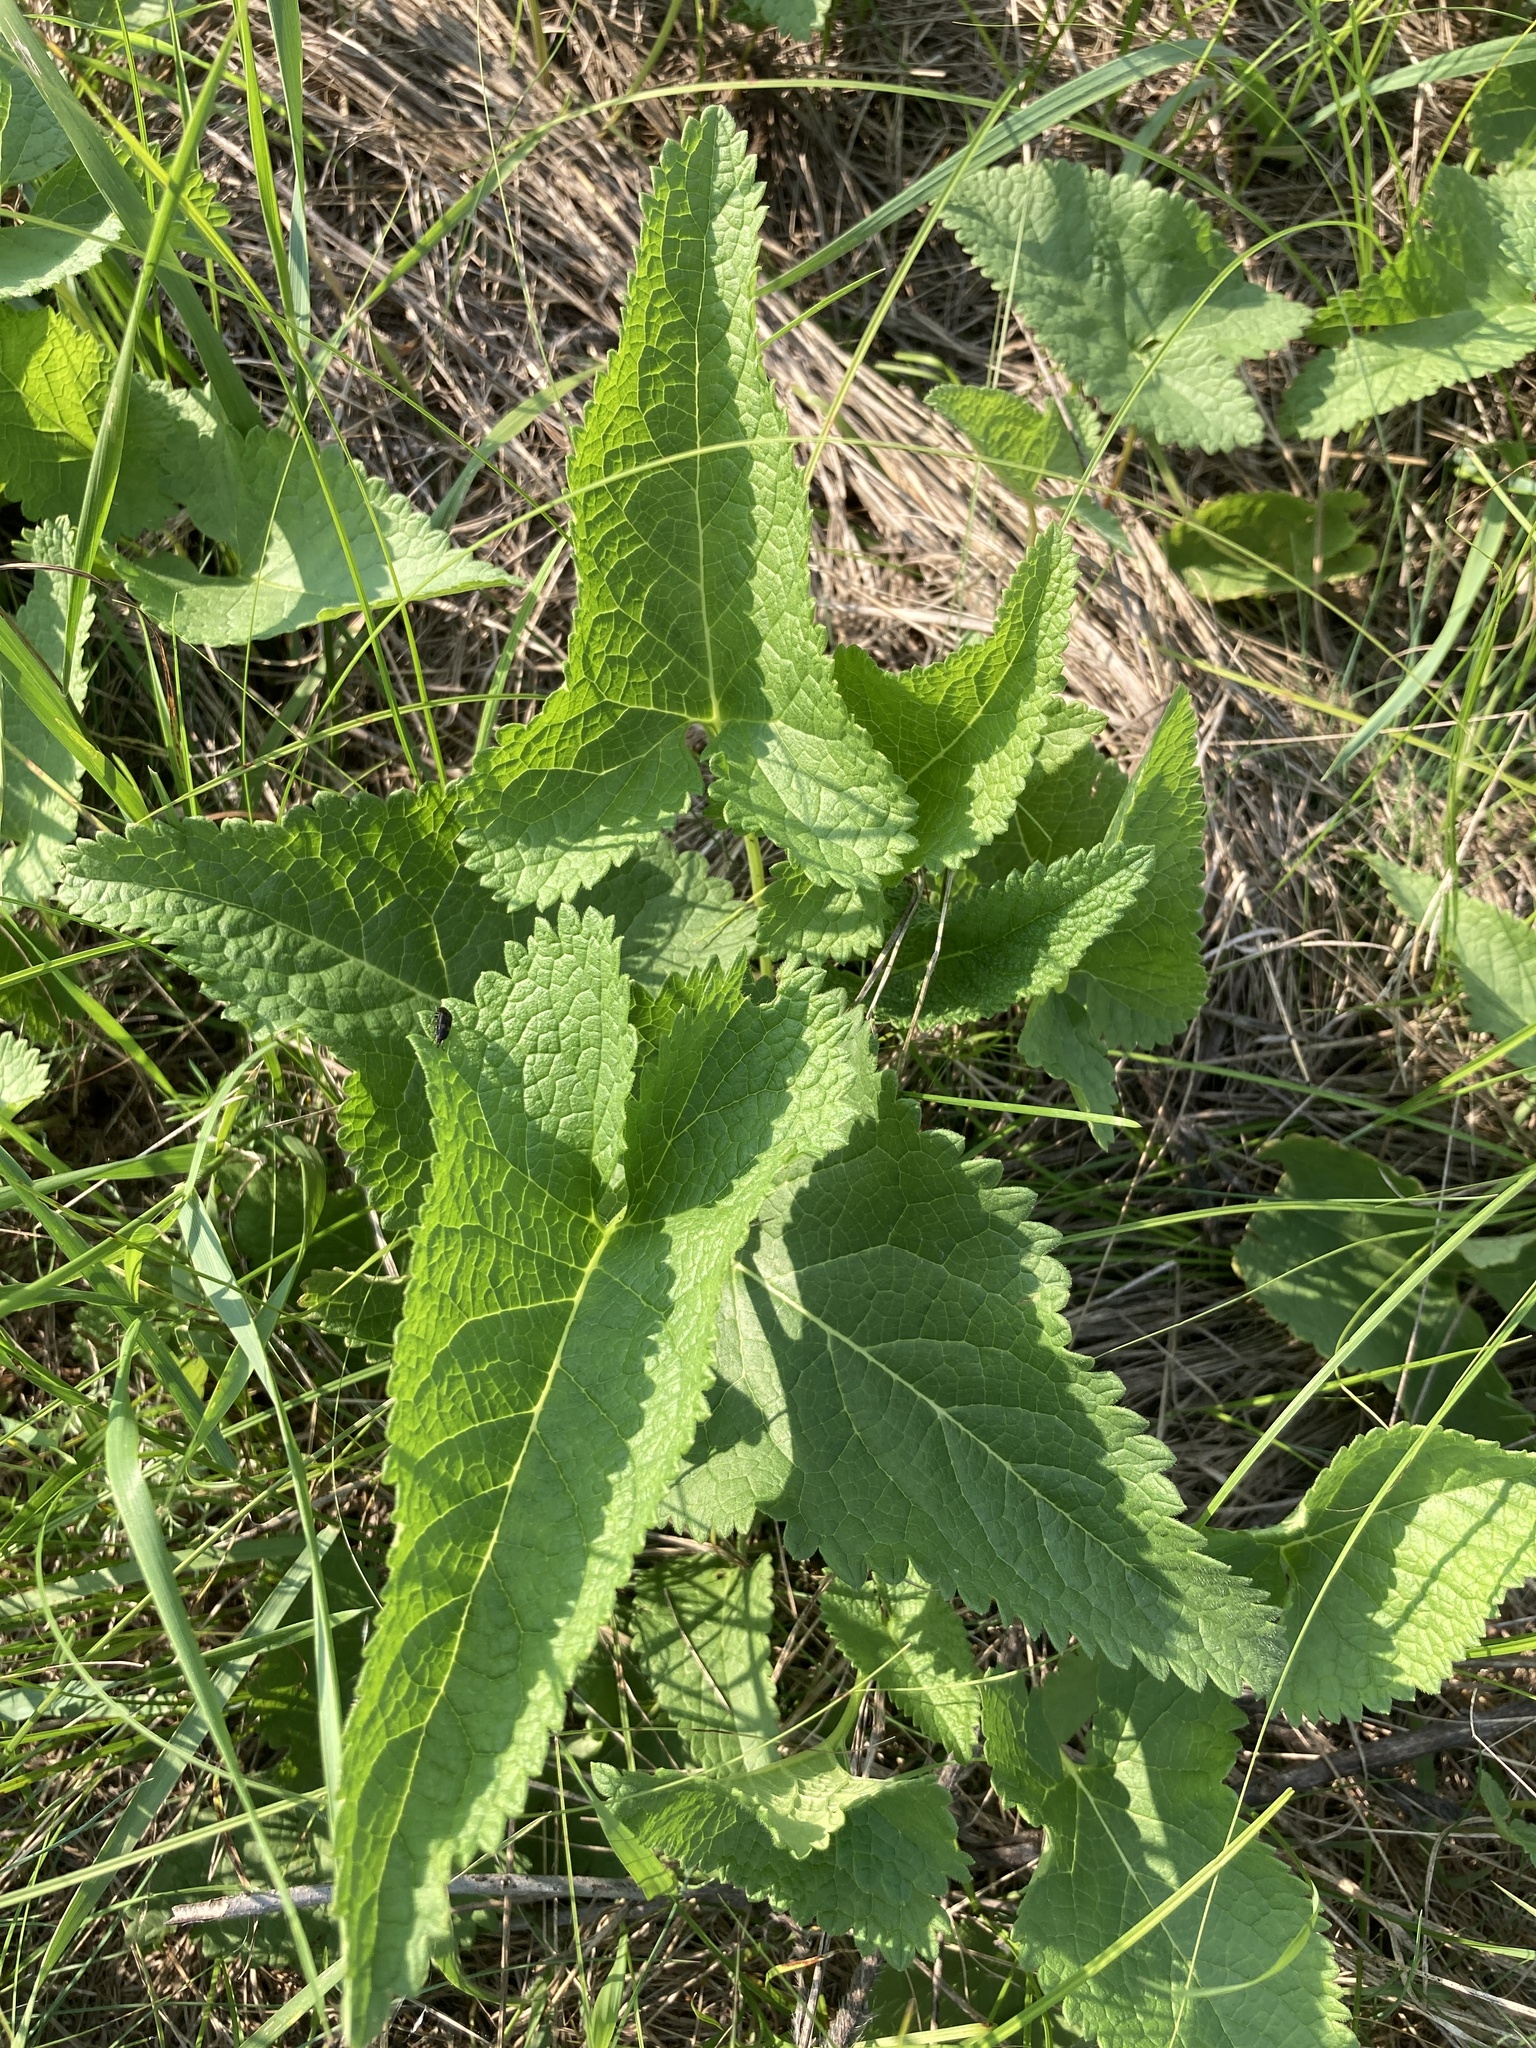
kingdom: Plantae
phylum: Tracheophyta
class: Magnoliopsida
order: Lamiales
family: Lamiaceae
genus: Phlomoides
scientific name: Phlomoides tuberosa
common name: Tuberous jerusalem sage
